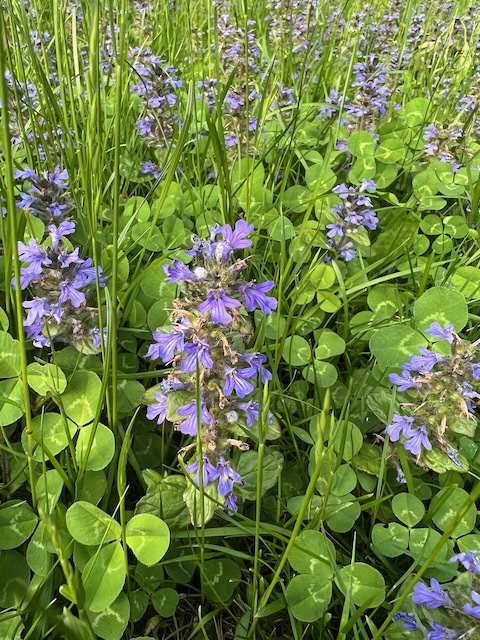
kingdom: Plantae
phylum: Tracheophyta
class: Magnoliopsida
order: Lamiales
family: Lamiaceae
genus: Ajuga
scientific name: Ajuga reptans
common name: Bugle
